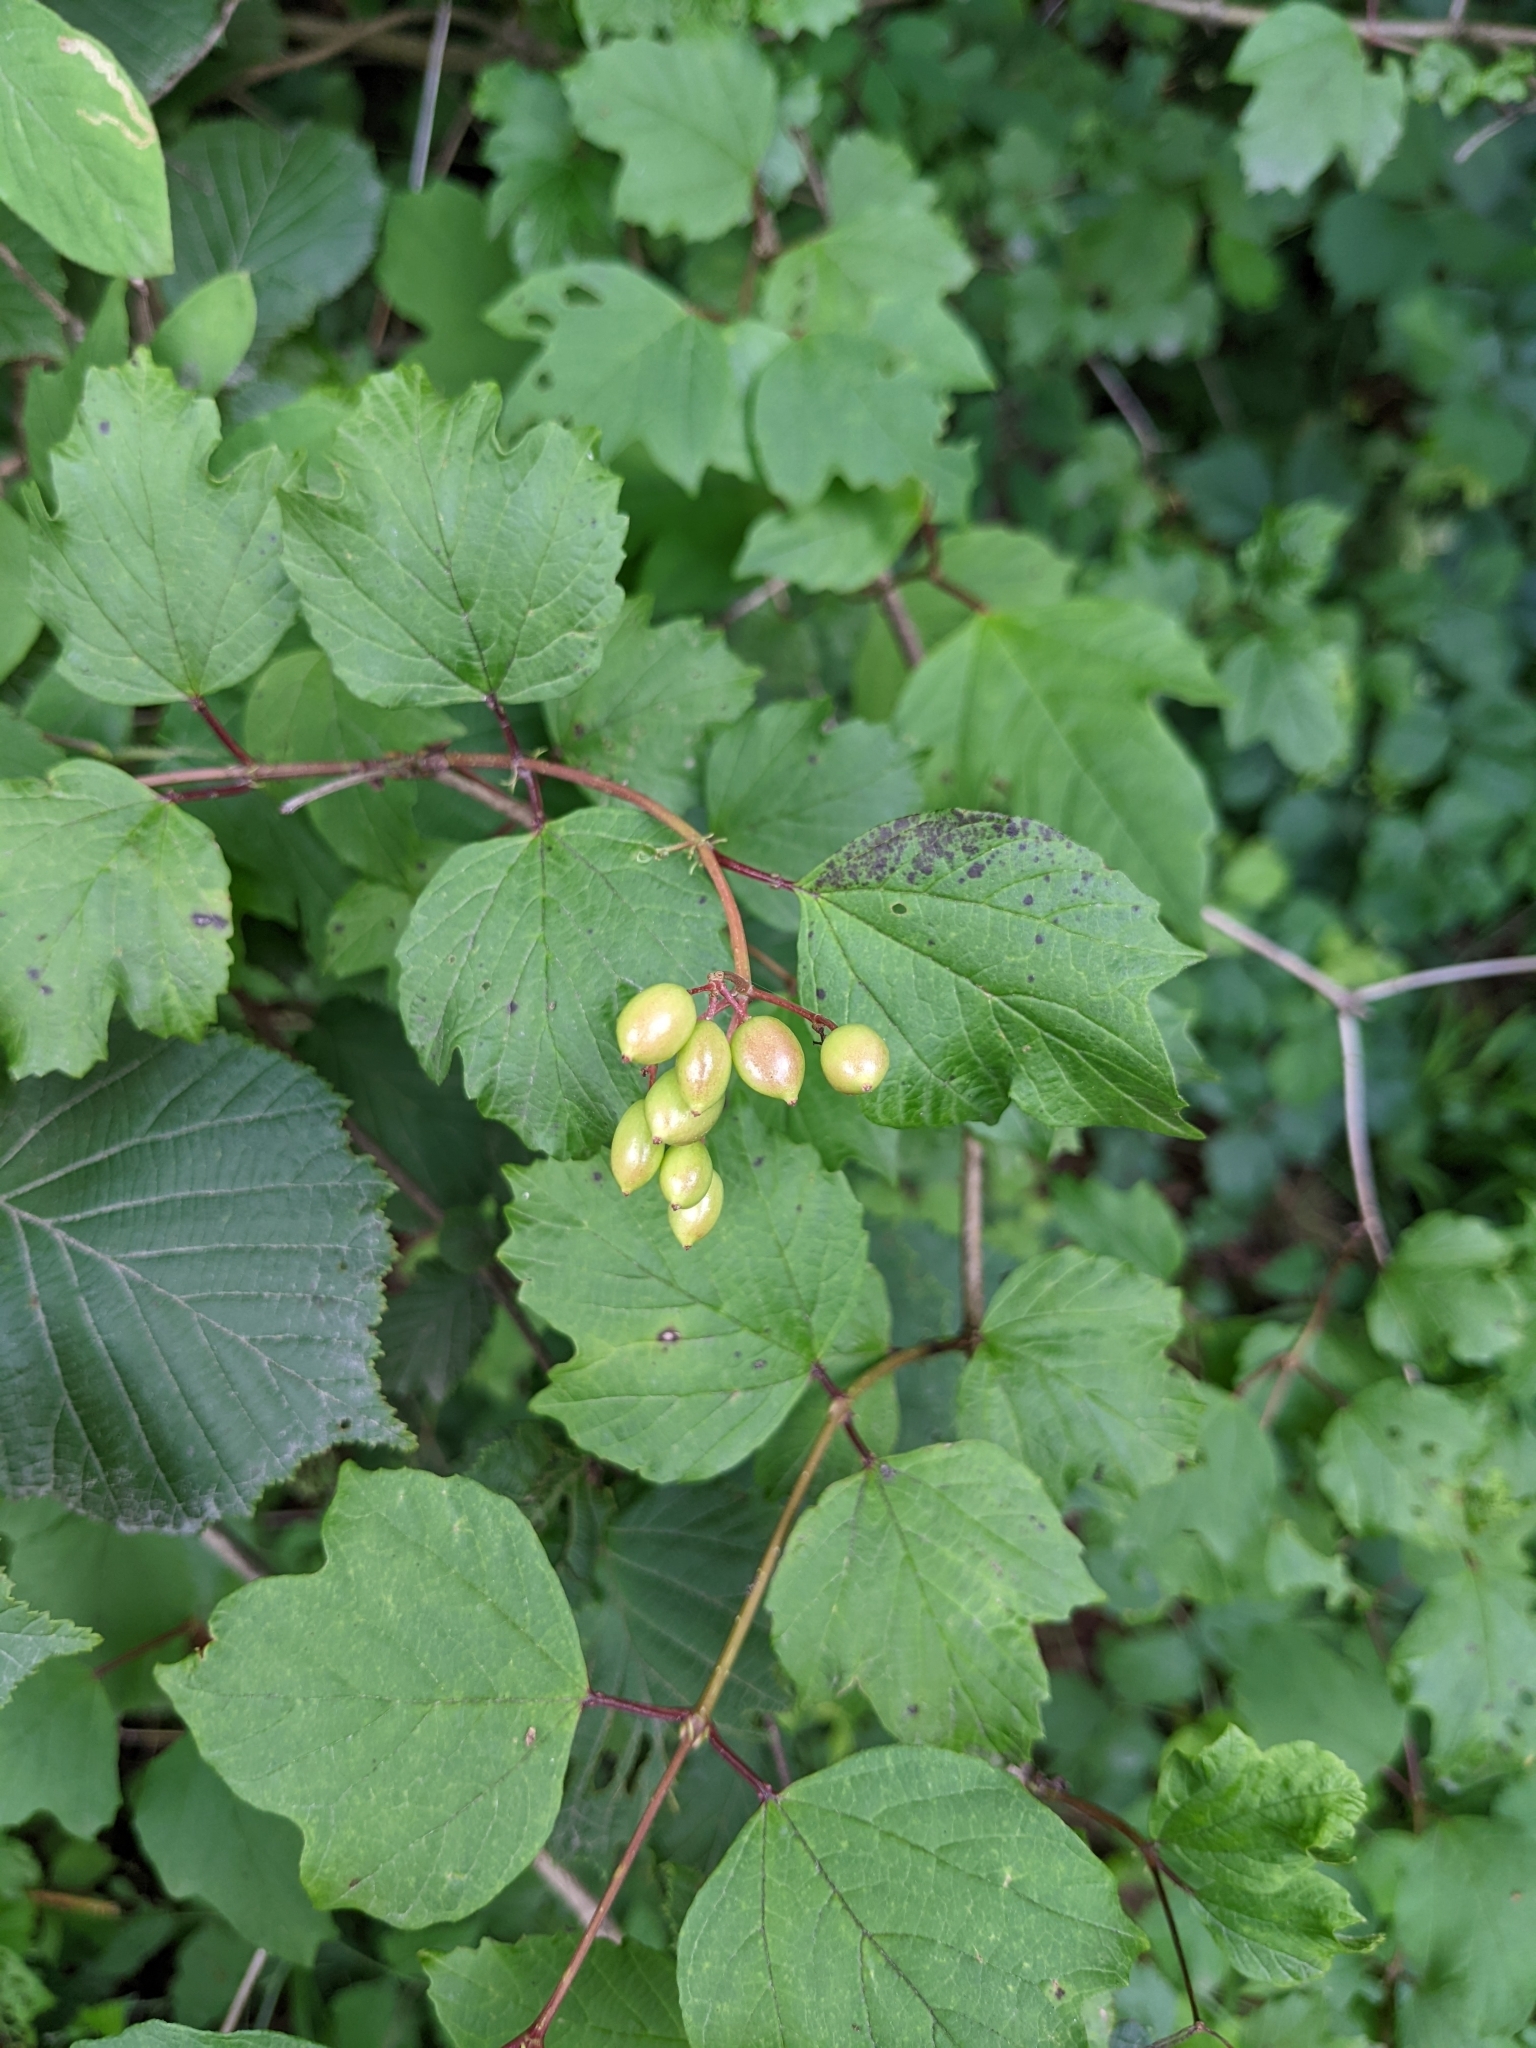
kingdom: Plantae
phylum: Tracheophyta
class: Magnoliopsida
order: Dipsacales
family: Viburnaceae
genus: Viburnum
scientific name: Viburnum opulus
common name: Guelder-rose
